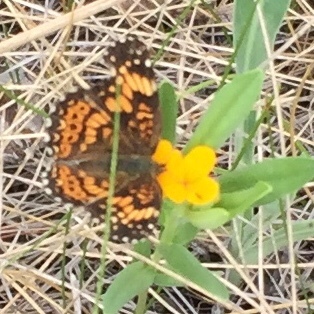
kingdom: Animalia
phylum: Arthropoda
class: Insecta
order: Lepidoptera
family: Nymphalidae
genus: Chlosyne
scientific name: Chlosyne gorgone
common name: Gorgone checkerspot
